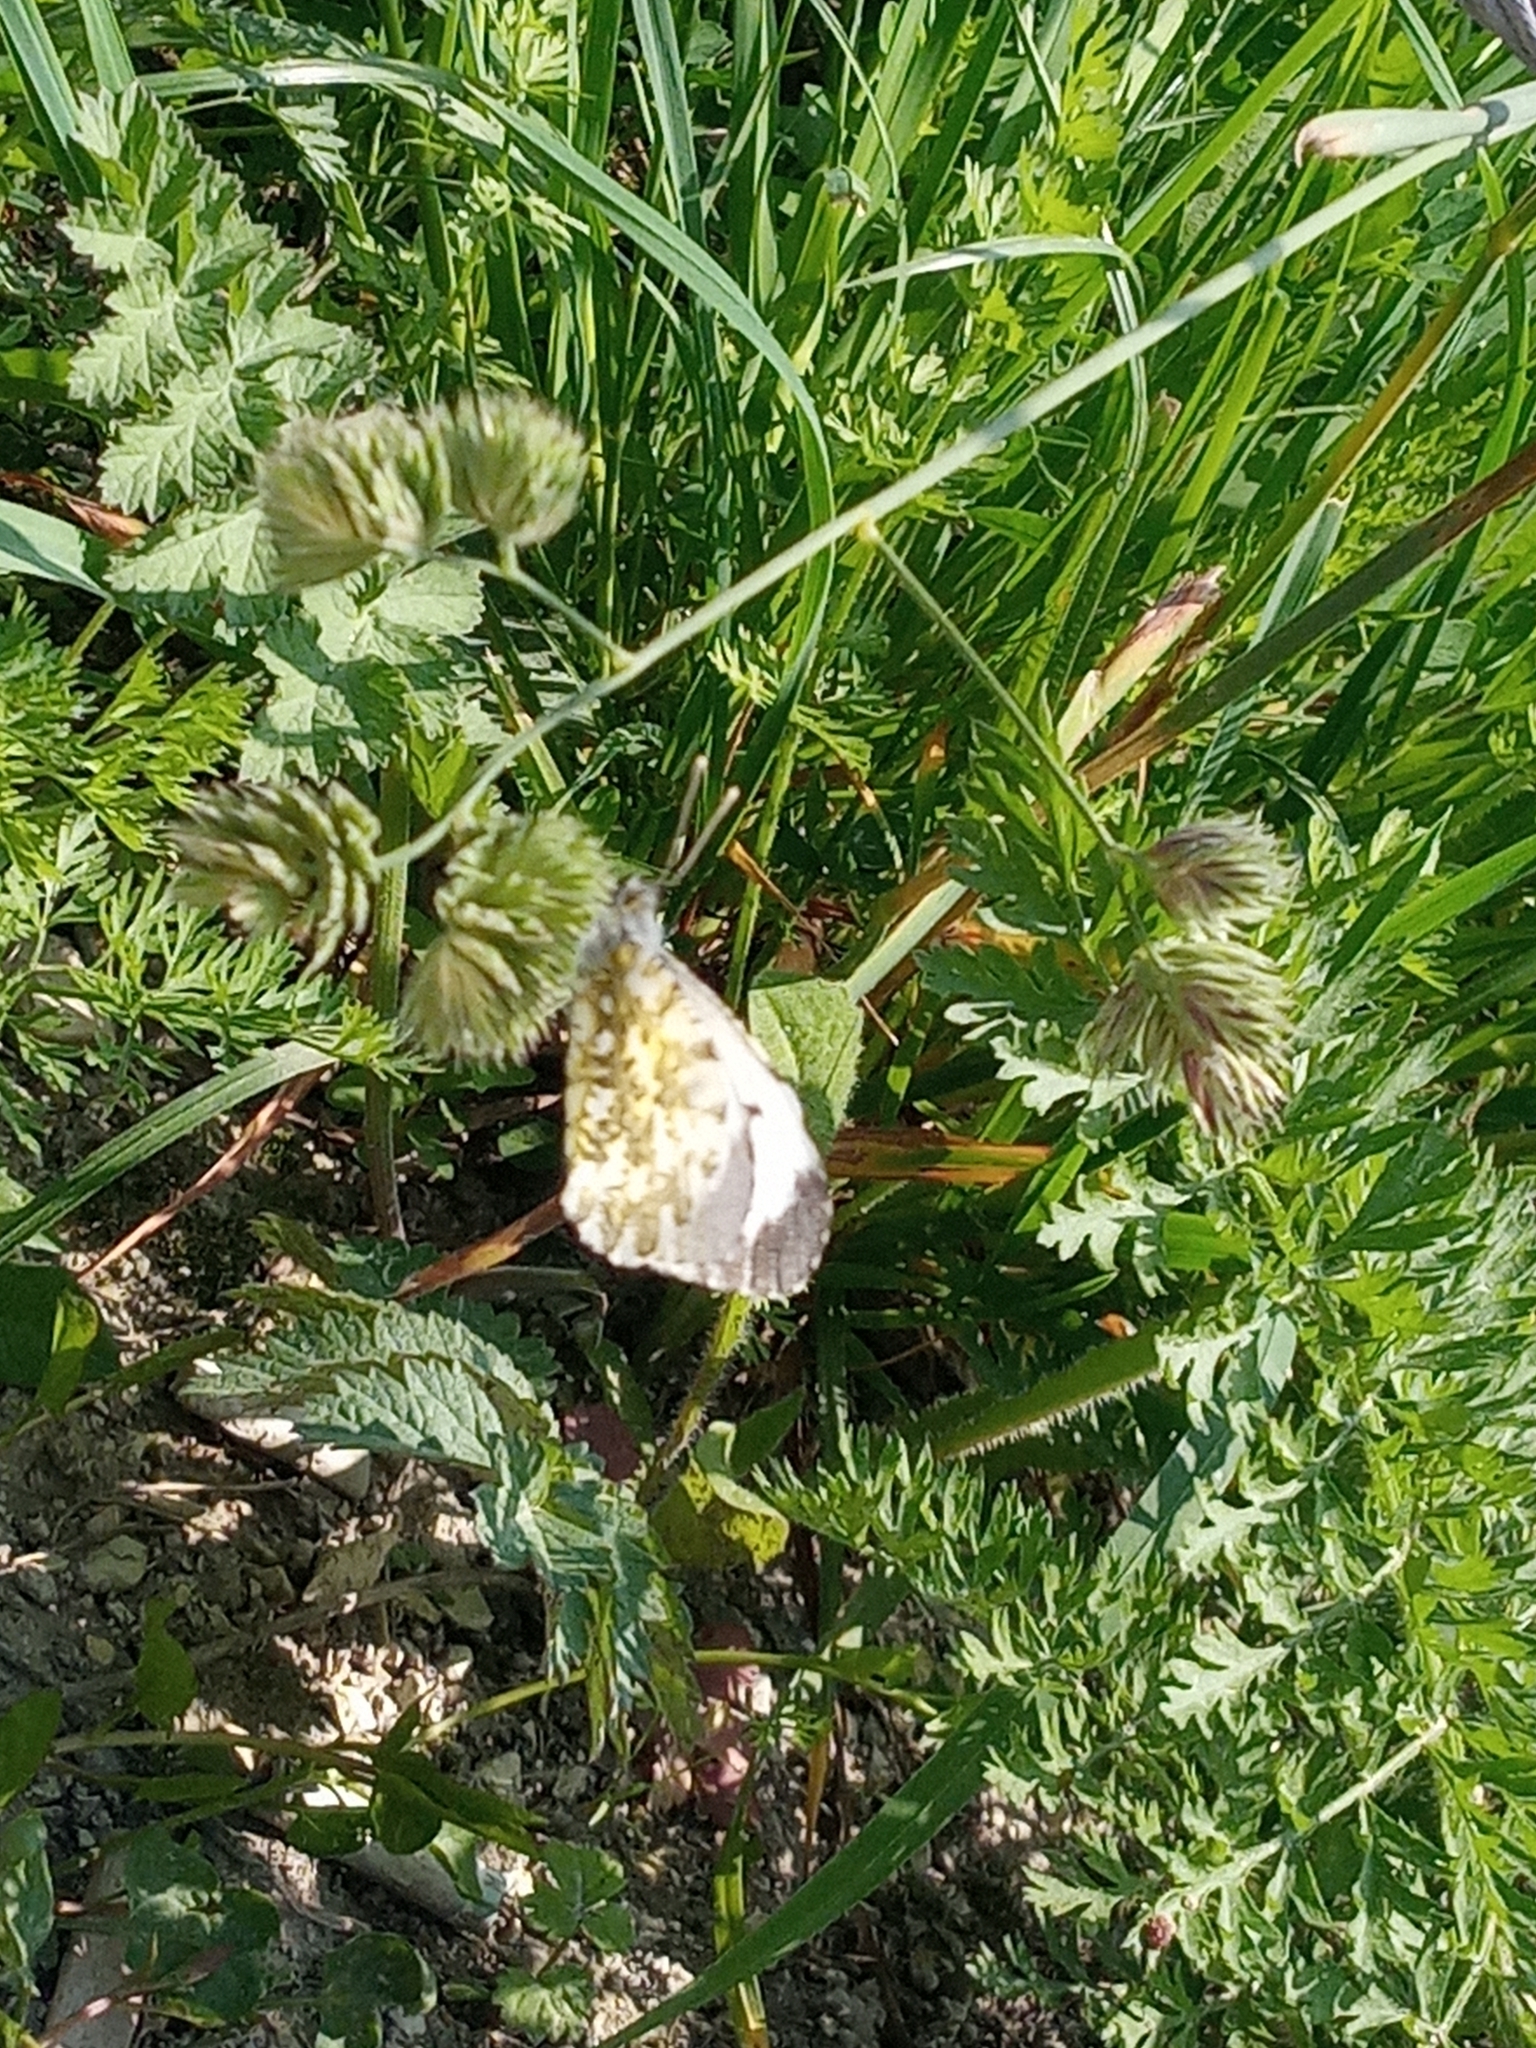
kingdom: Animalia
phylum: Arthropoda
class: Insecta
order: Lepidoptera
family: Pieridae
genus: Anthocharis
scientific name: Anthocharis cardamines
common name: Orange-tip
